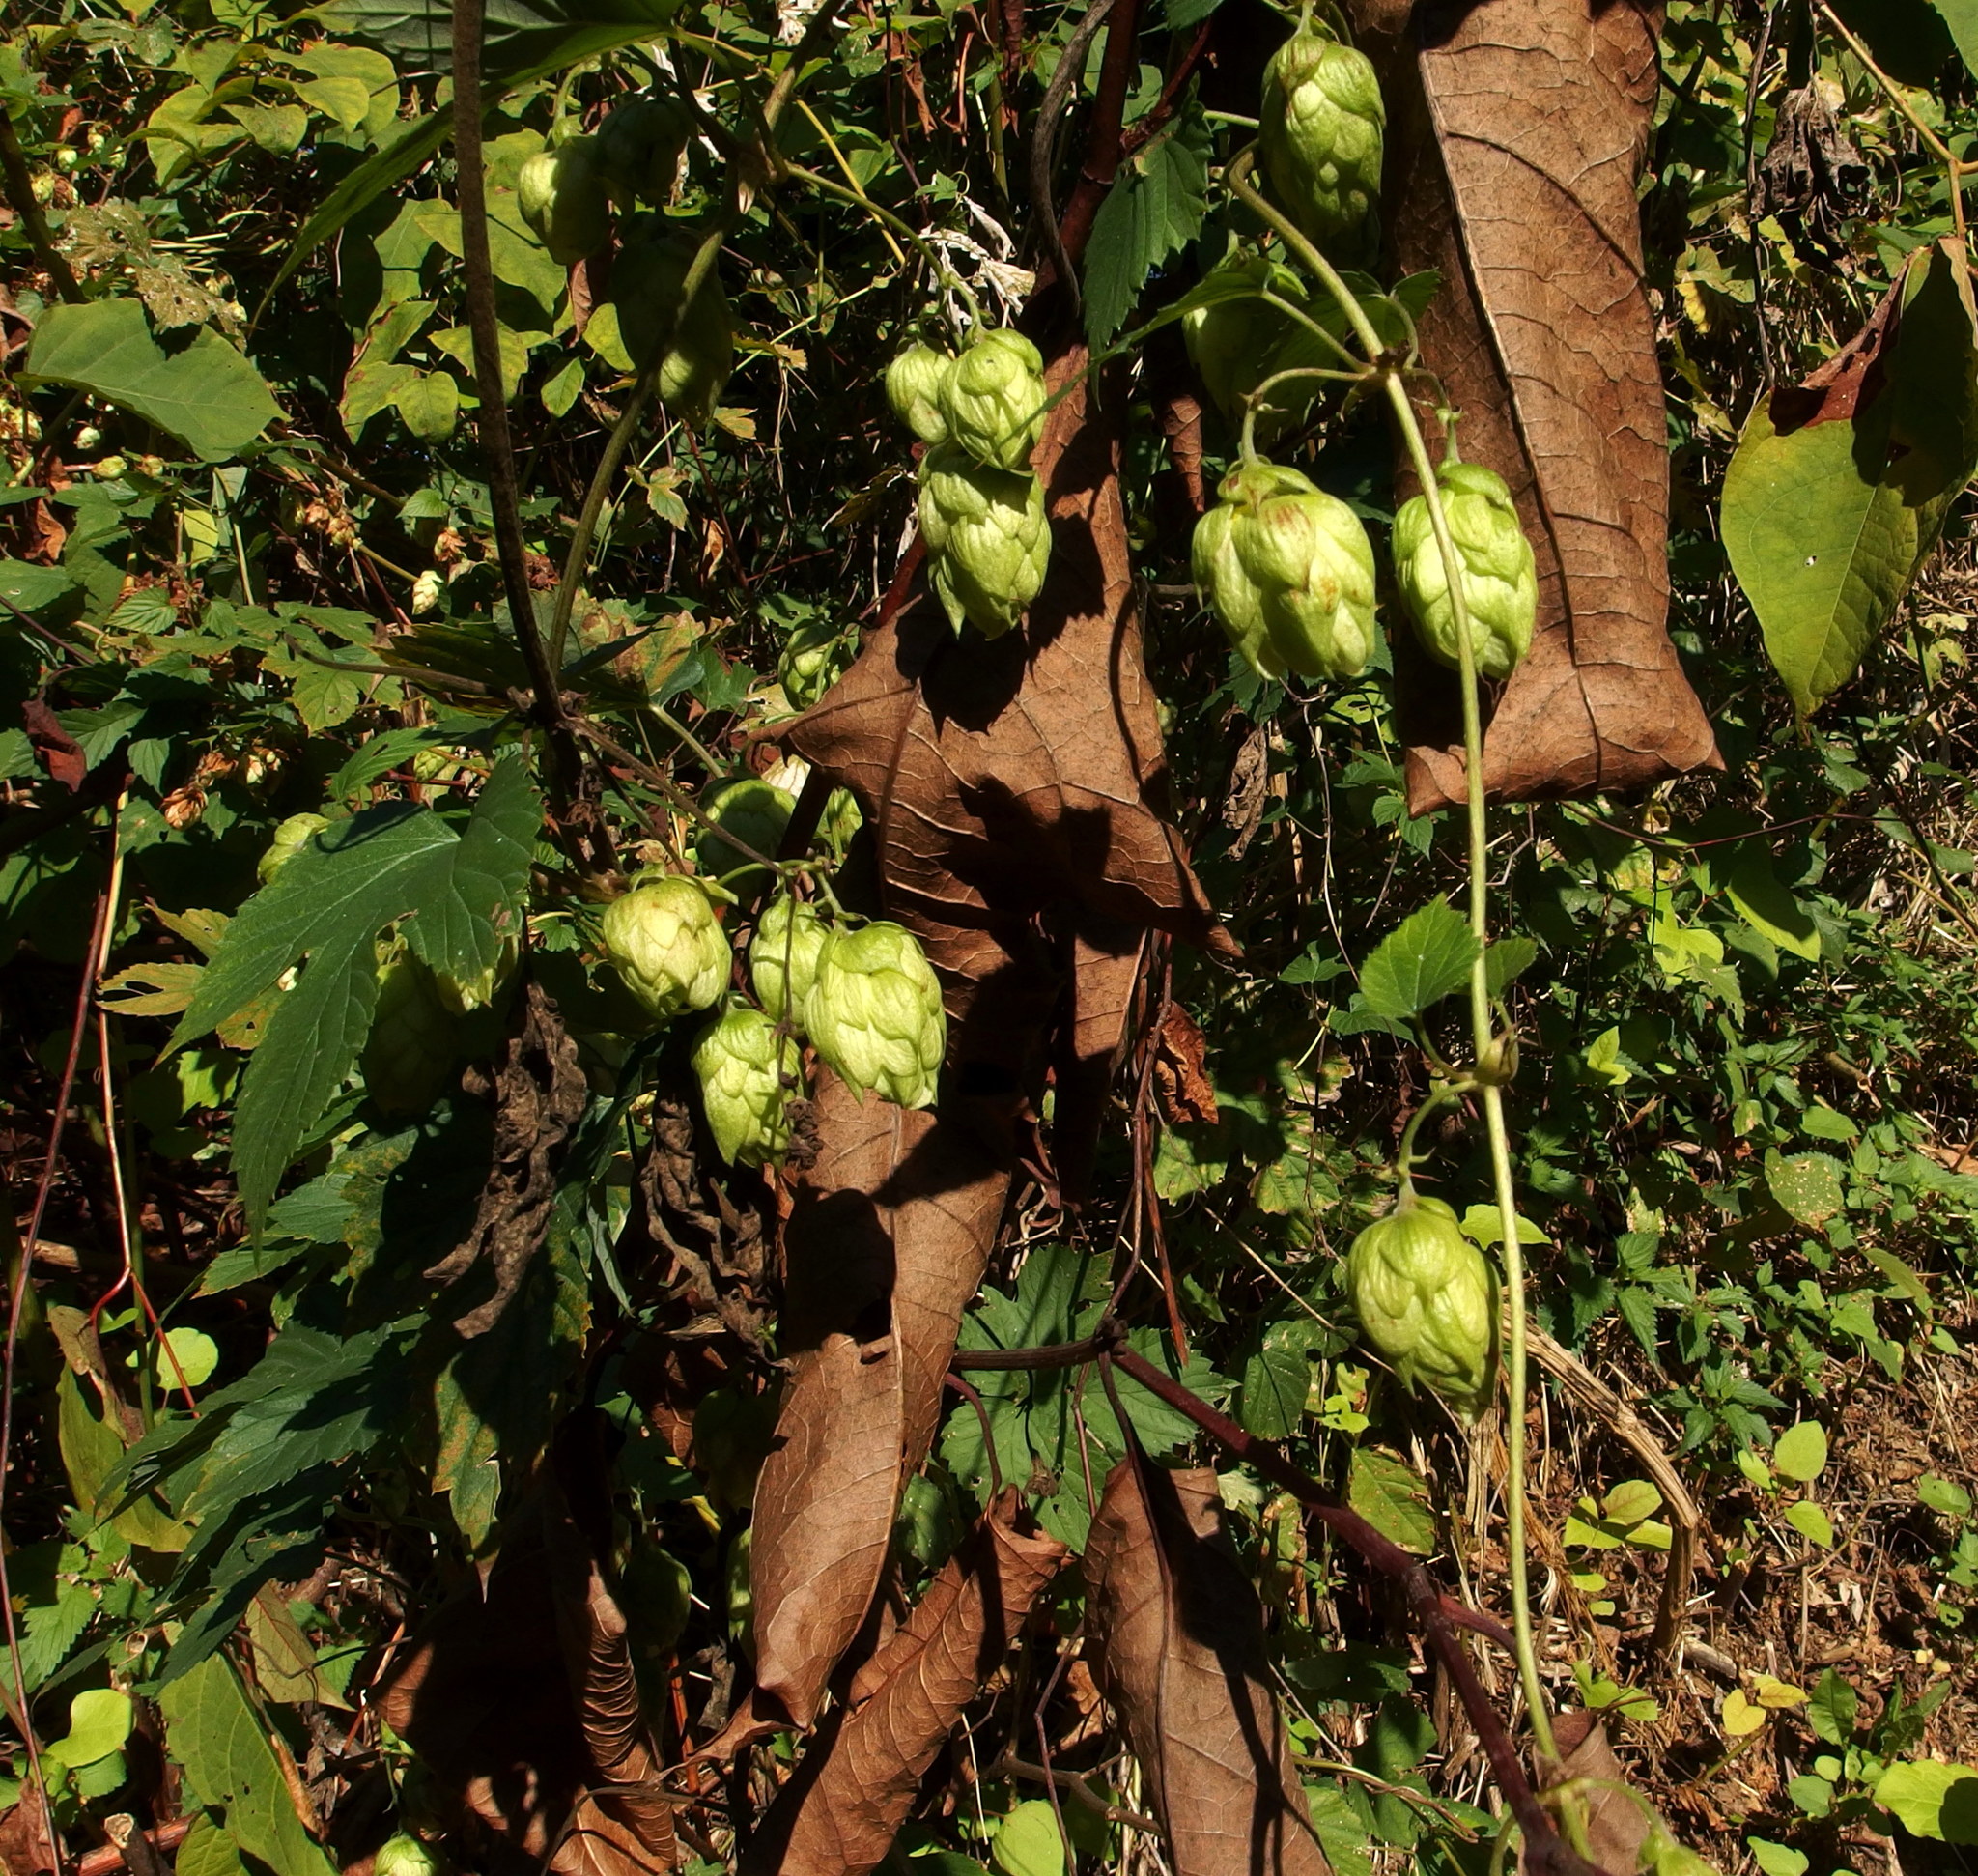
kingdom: Plantae
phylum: Tracheophyta
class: Magnoliopsida
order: Rosales
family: Cannabaceae
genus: Humulus
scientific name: Humulus lupulus
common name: Hop
